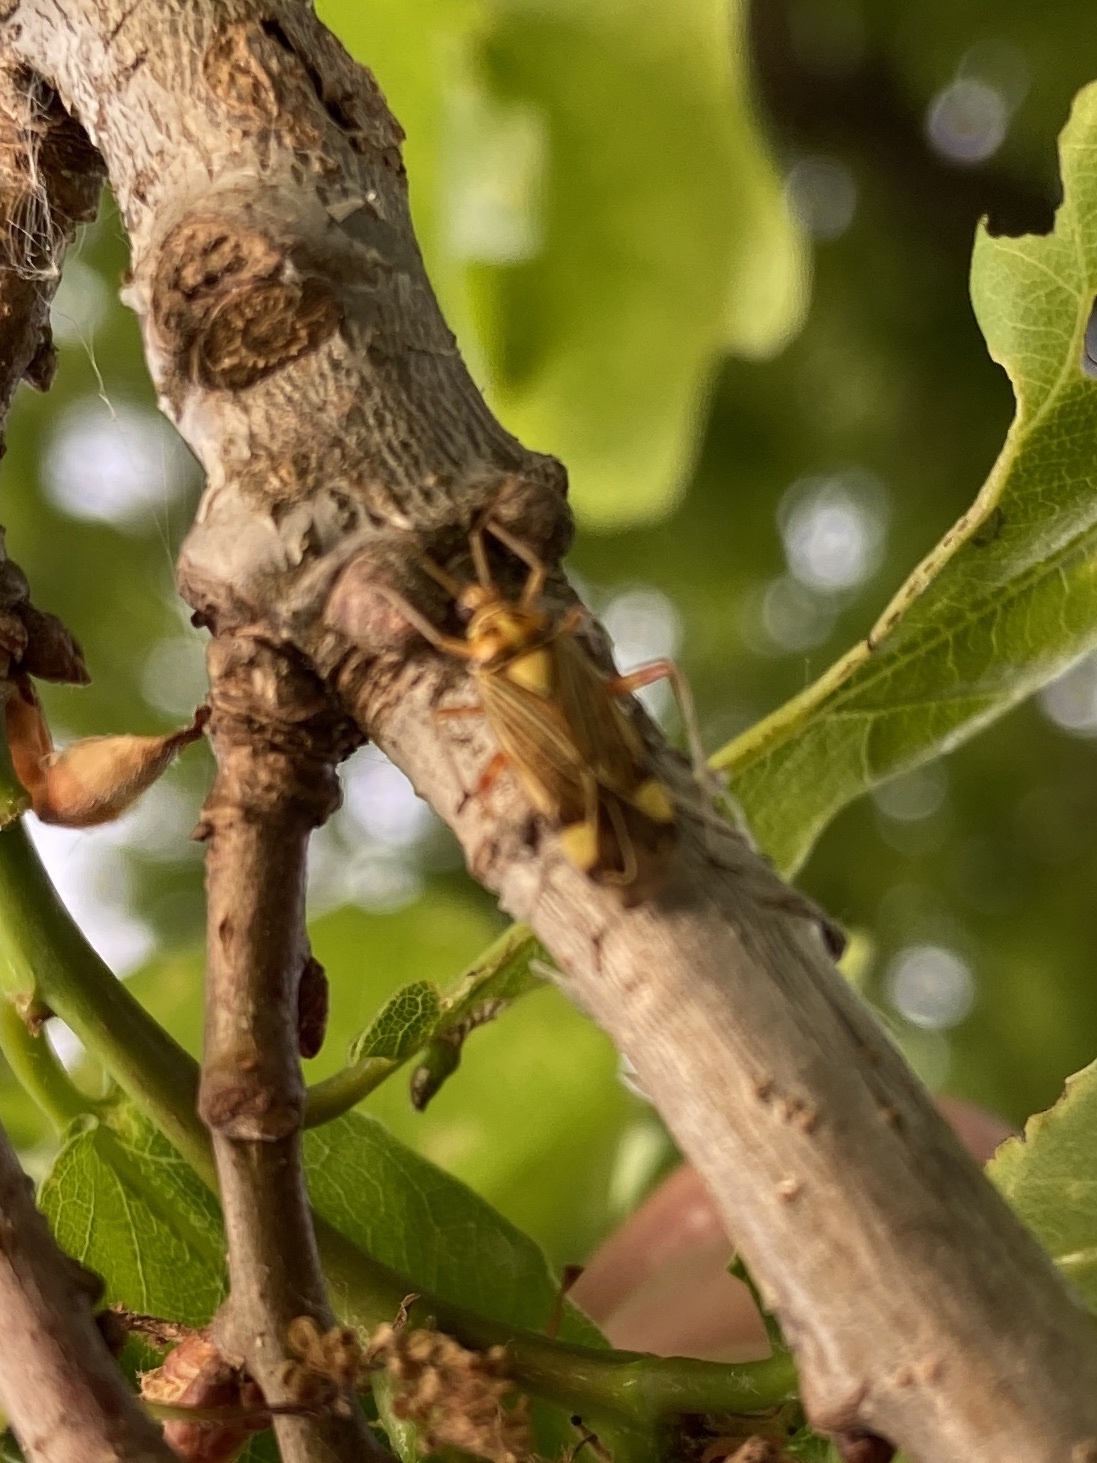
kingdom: Animalia
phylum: Arthropoda
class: Insecta
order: Hemiptera
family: Miridae
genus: Rhabdomiris
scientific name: Rhabdomiris striatellus
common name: Plant bug
